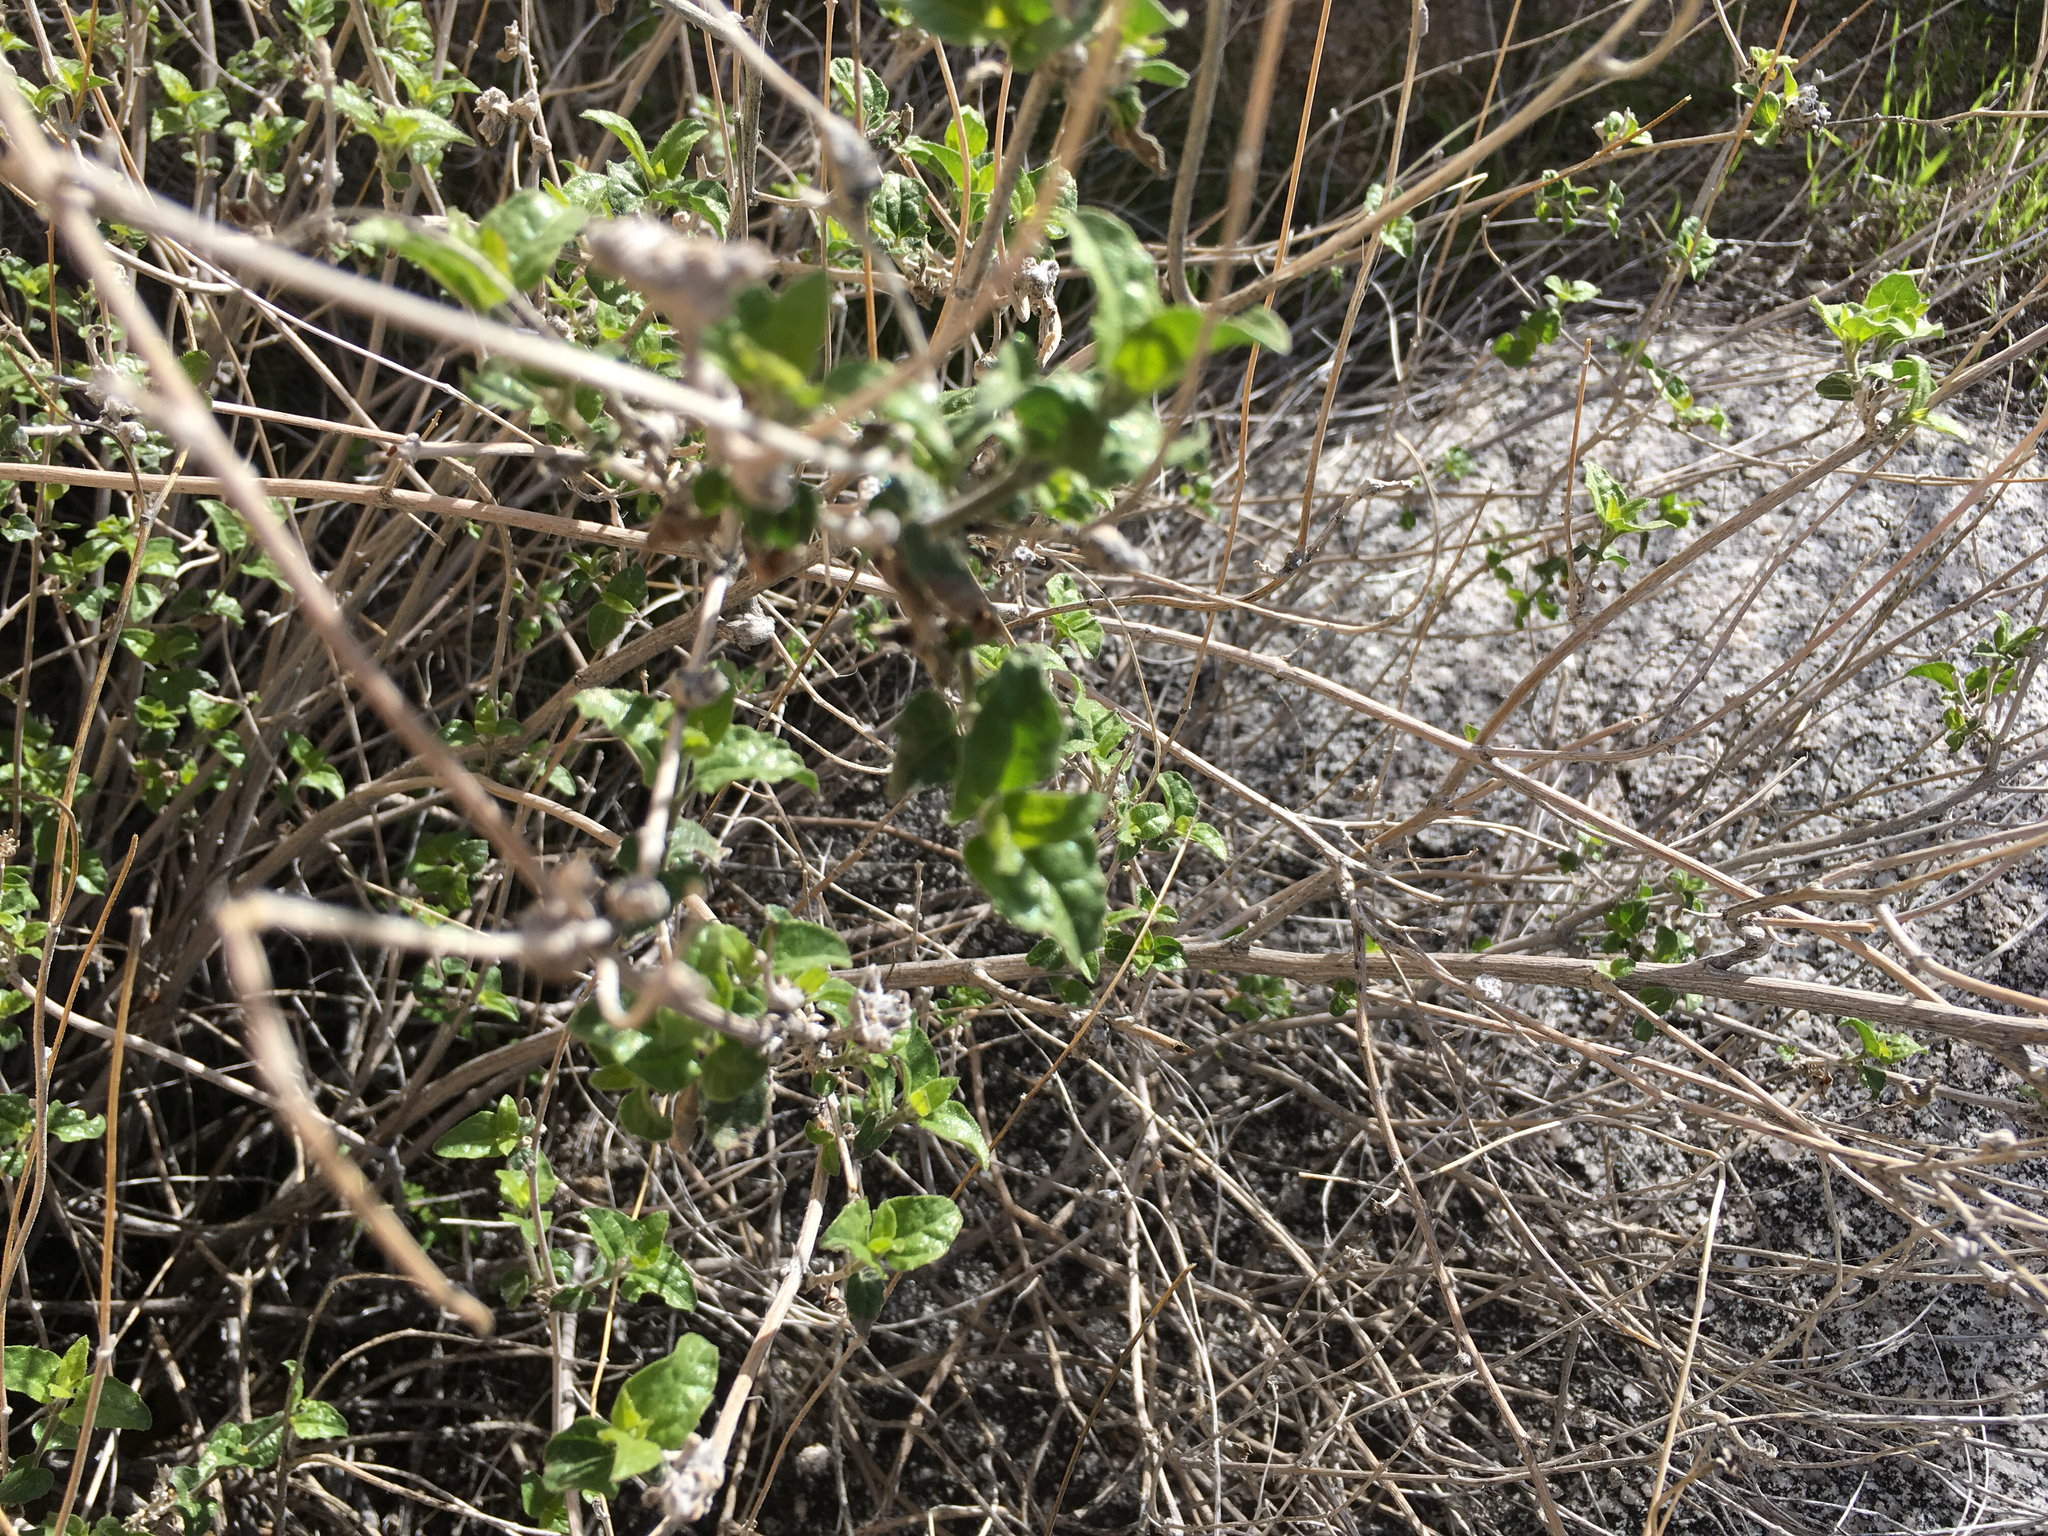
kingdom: Plantae
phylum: Tracheophyta
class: Magnoliopsida
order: Asterales
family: Asteraceae
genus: Bahiopsis
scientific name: Bahiopsis parishii
